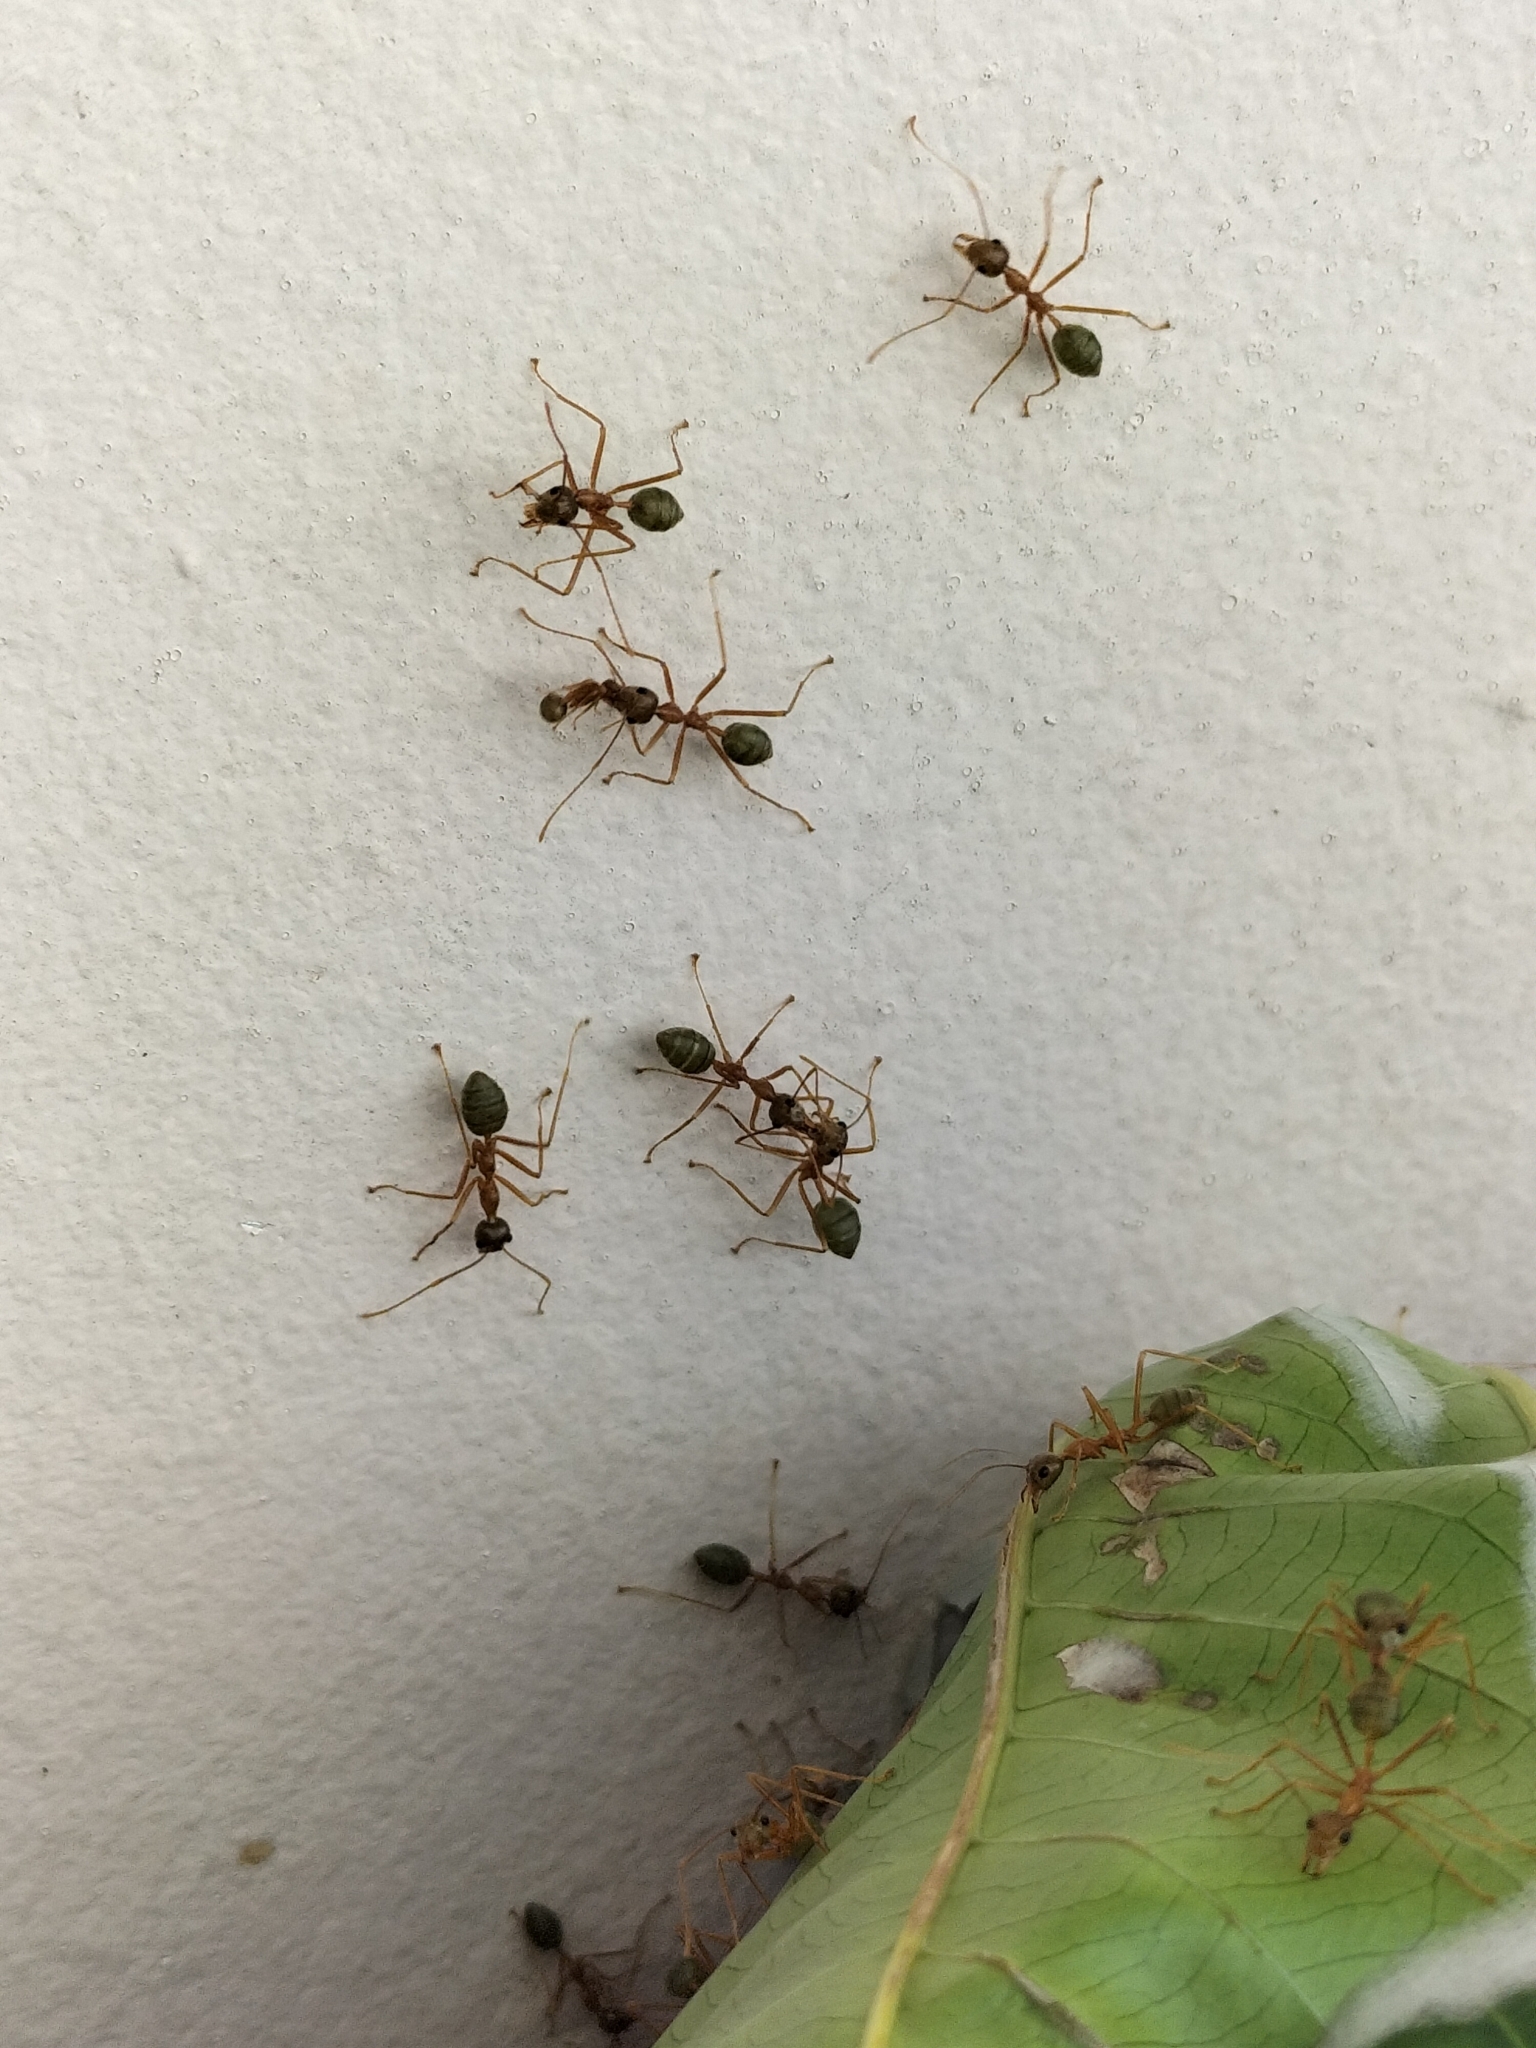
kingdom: Animalia
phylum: Arthropoda
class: Insecta
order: Hymenoptera
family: Formicidae
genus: Oecophylla
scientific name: Oecophylla smaragdina
